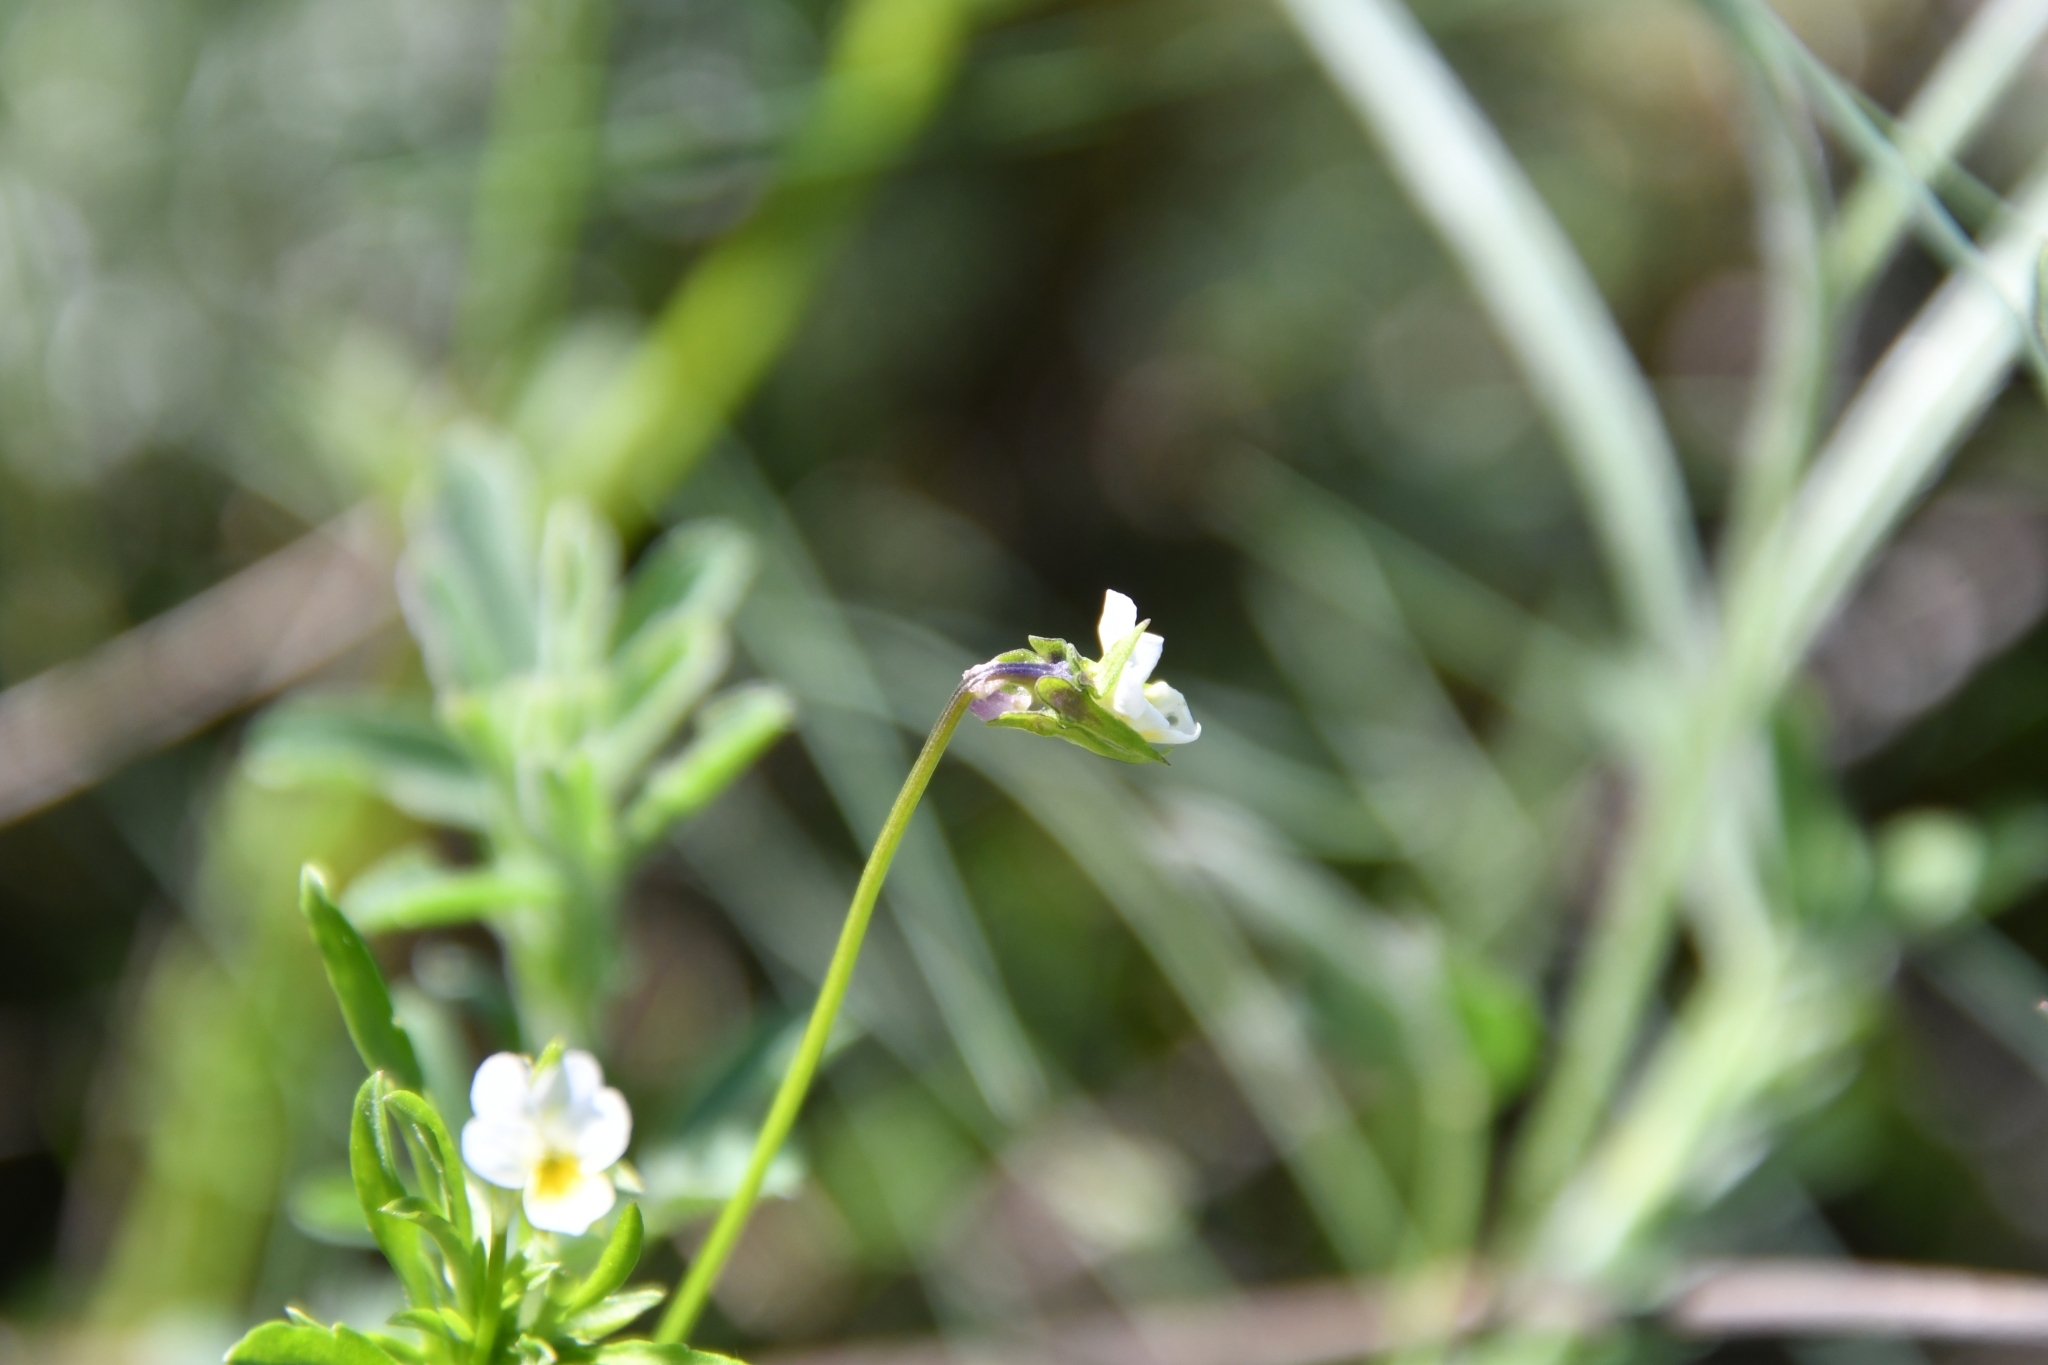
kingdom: Plantae
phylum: Tracheophyta
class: Magnoliopsida
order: Malpighiales
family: Violaceae
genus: Viola
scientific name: Viola kitaibeliana
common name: Dwarf pansy
